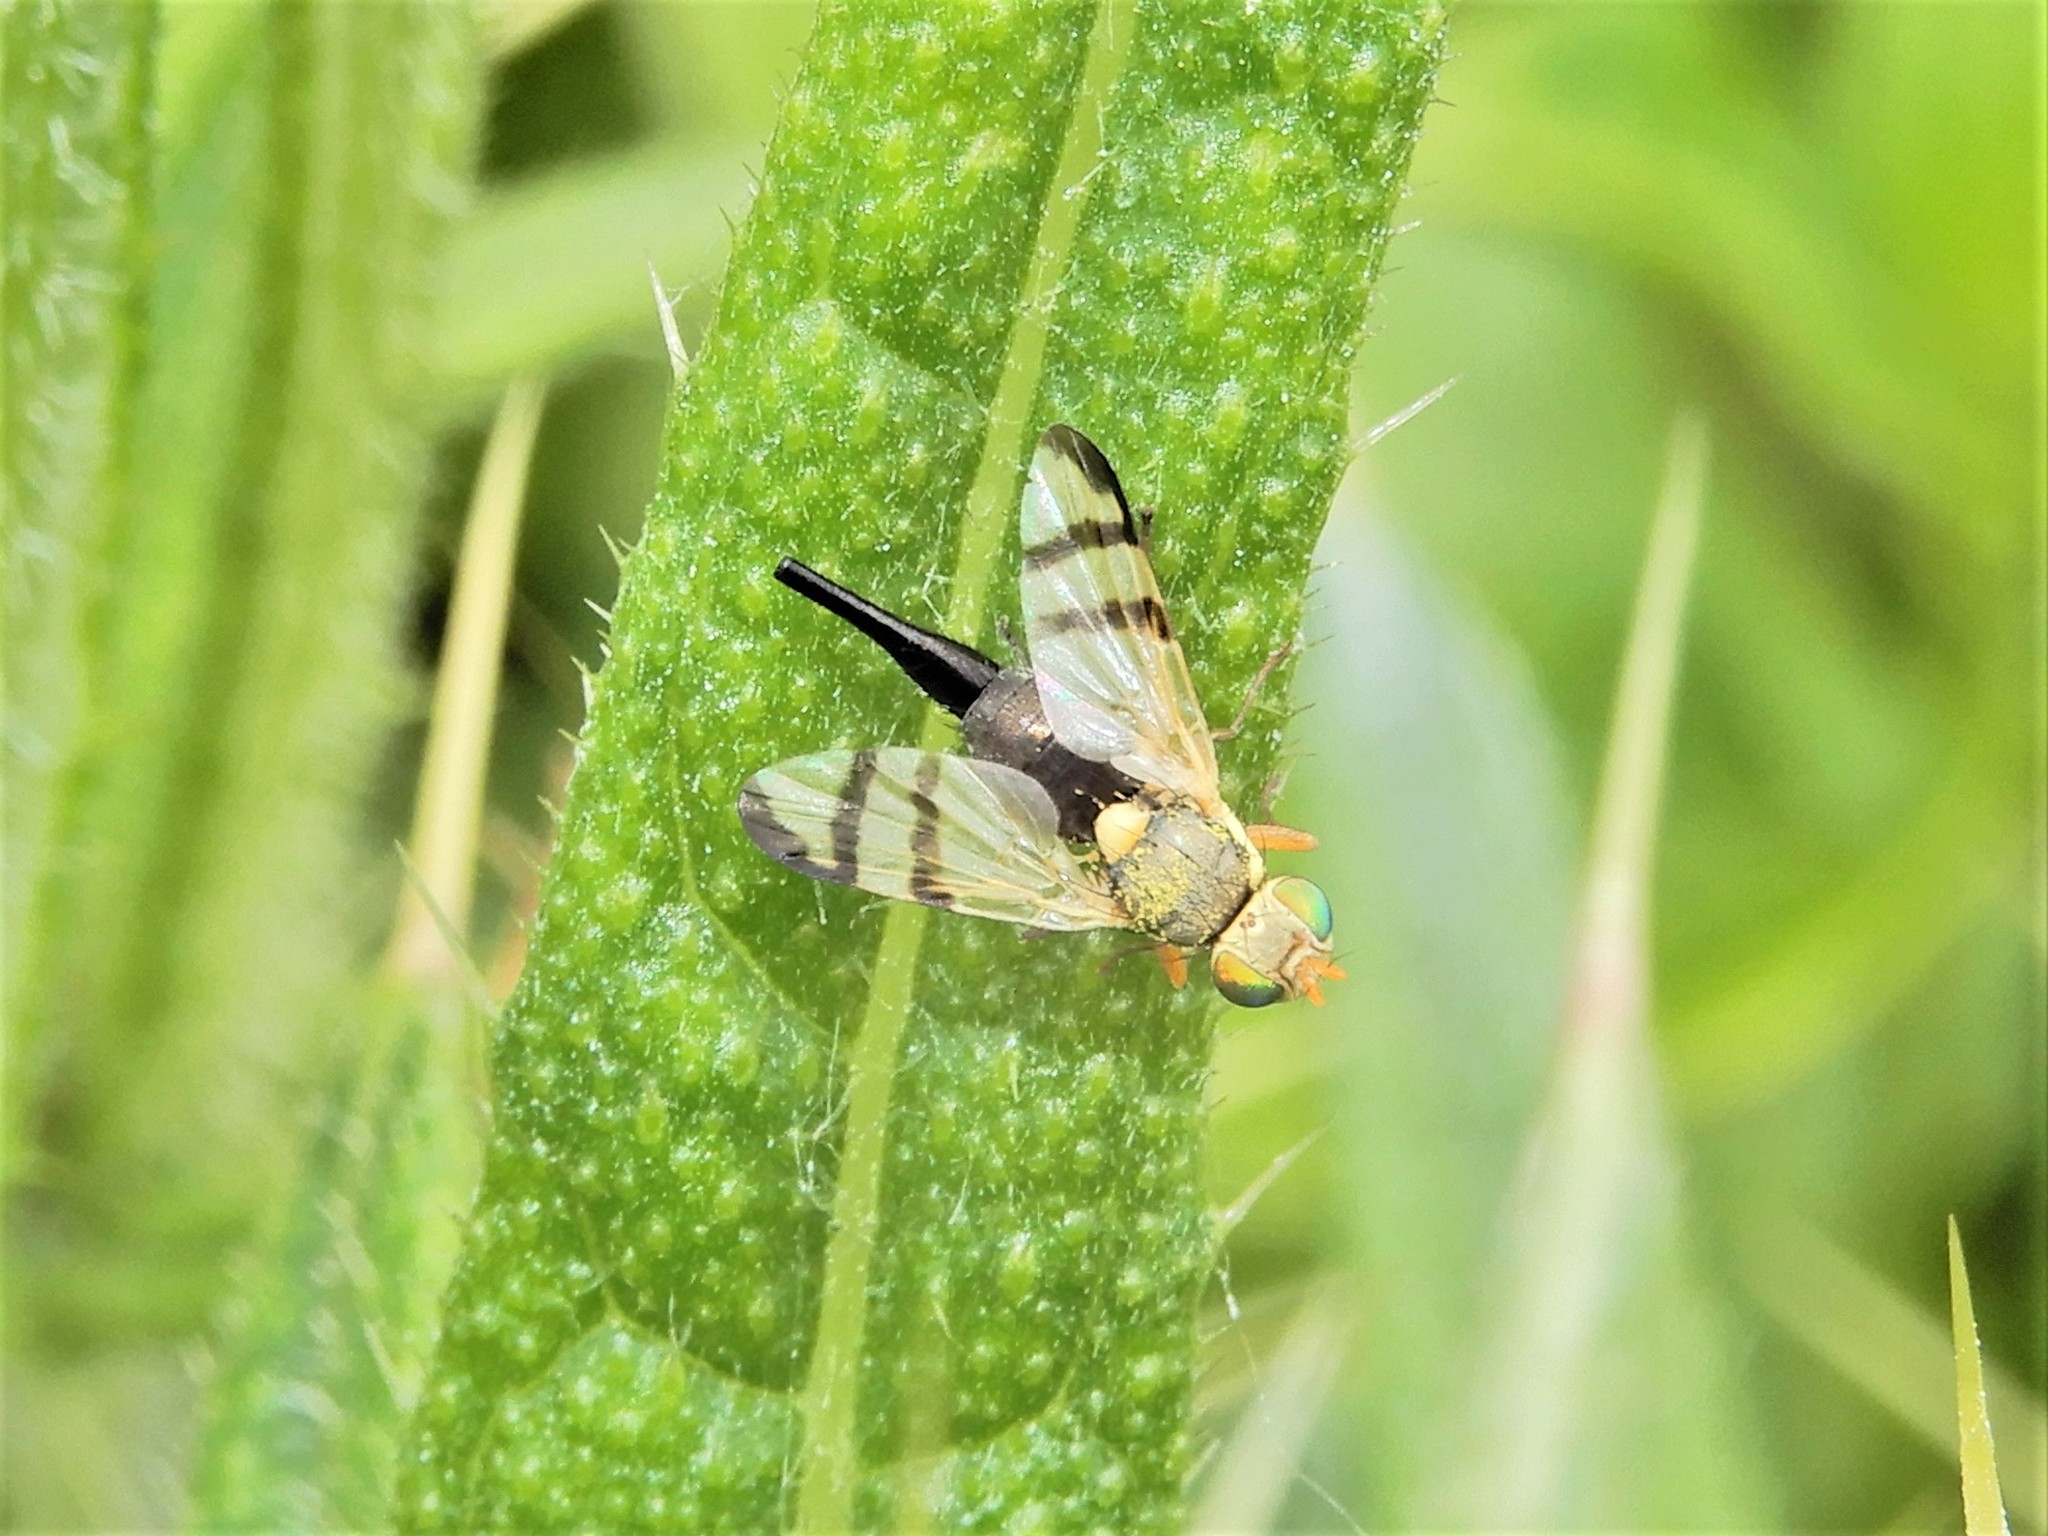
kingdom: Animalia
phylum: Arthropoda
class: Insecta
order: Diptera
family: Tephritidae
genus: Urophora
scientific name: Urophora stylata
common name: Fruit fly
